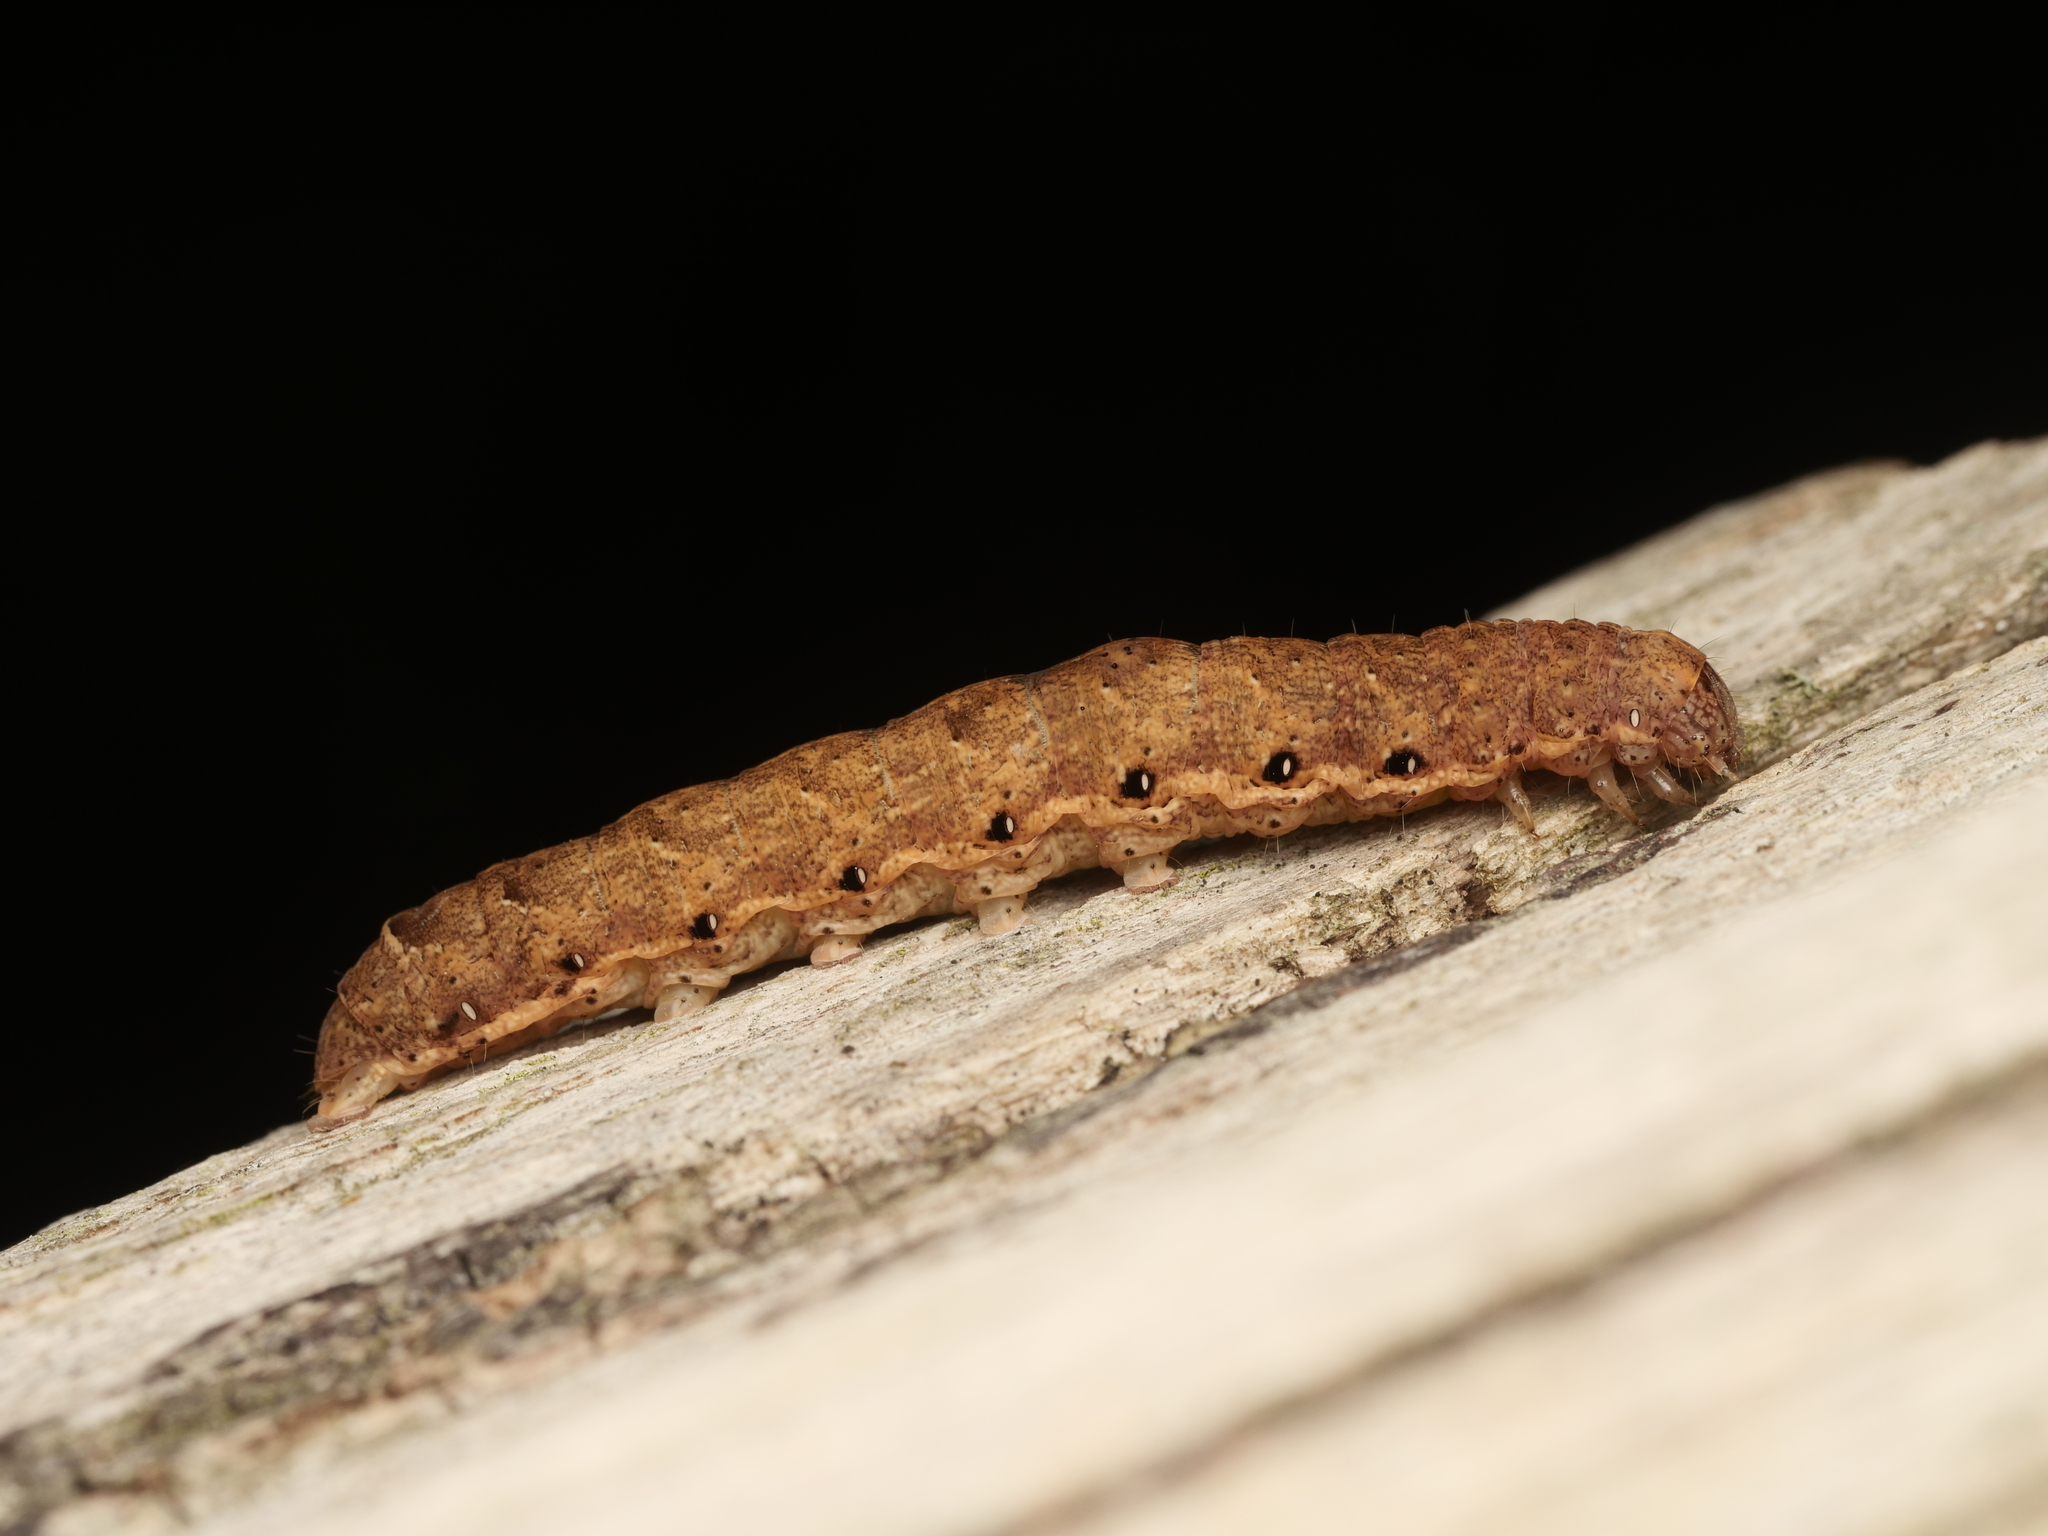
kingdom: Animalia
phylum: Arthropoda
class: Insecta
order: Lepidoptera
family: Noctuidae
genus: Noctua
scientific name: Noctua fimbriata
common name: Broad-bordered yellow underwing
